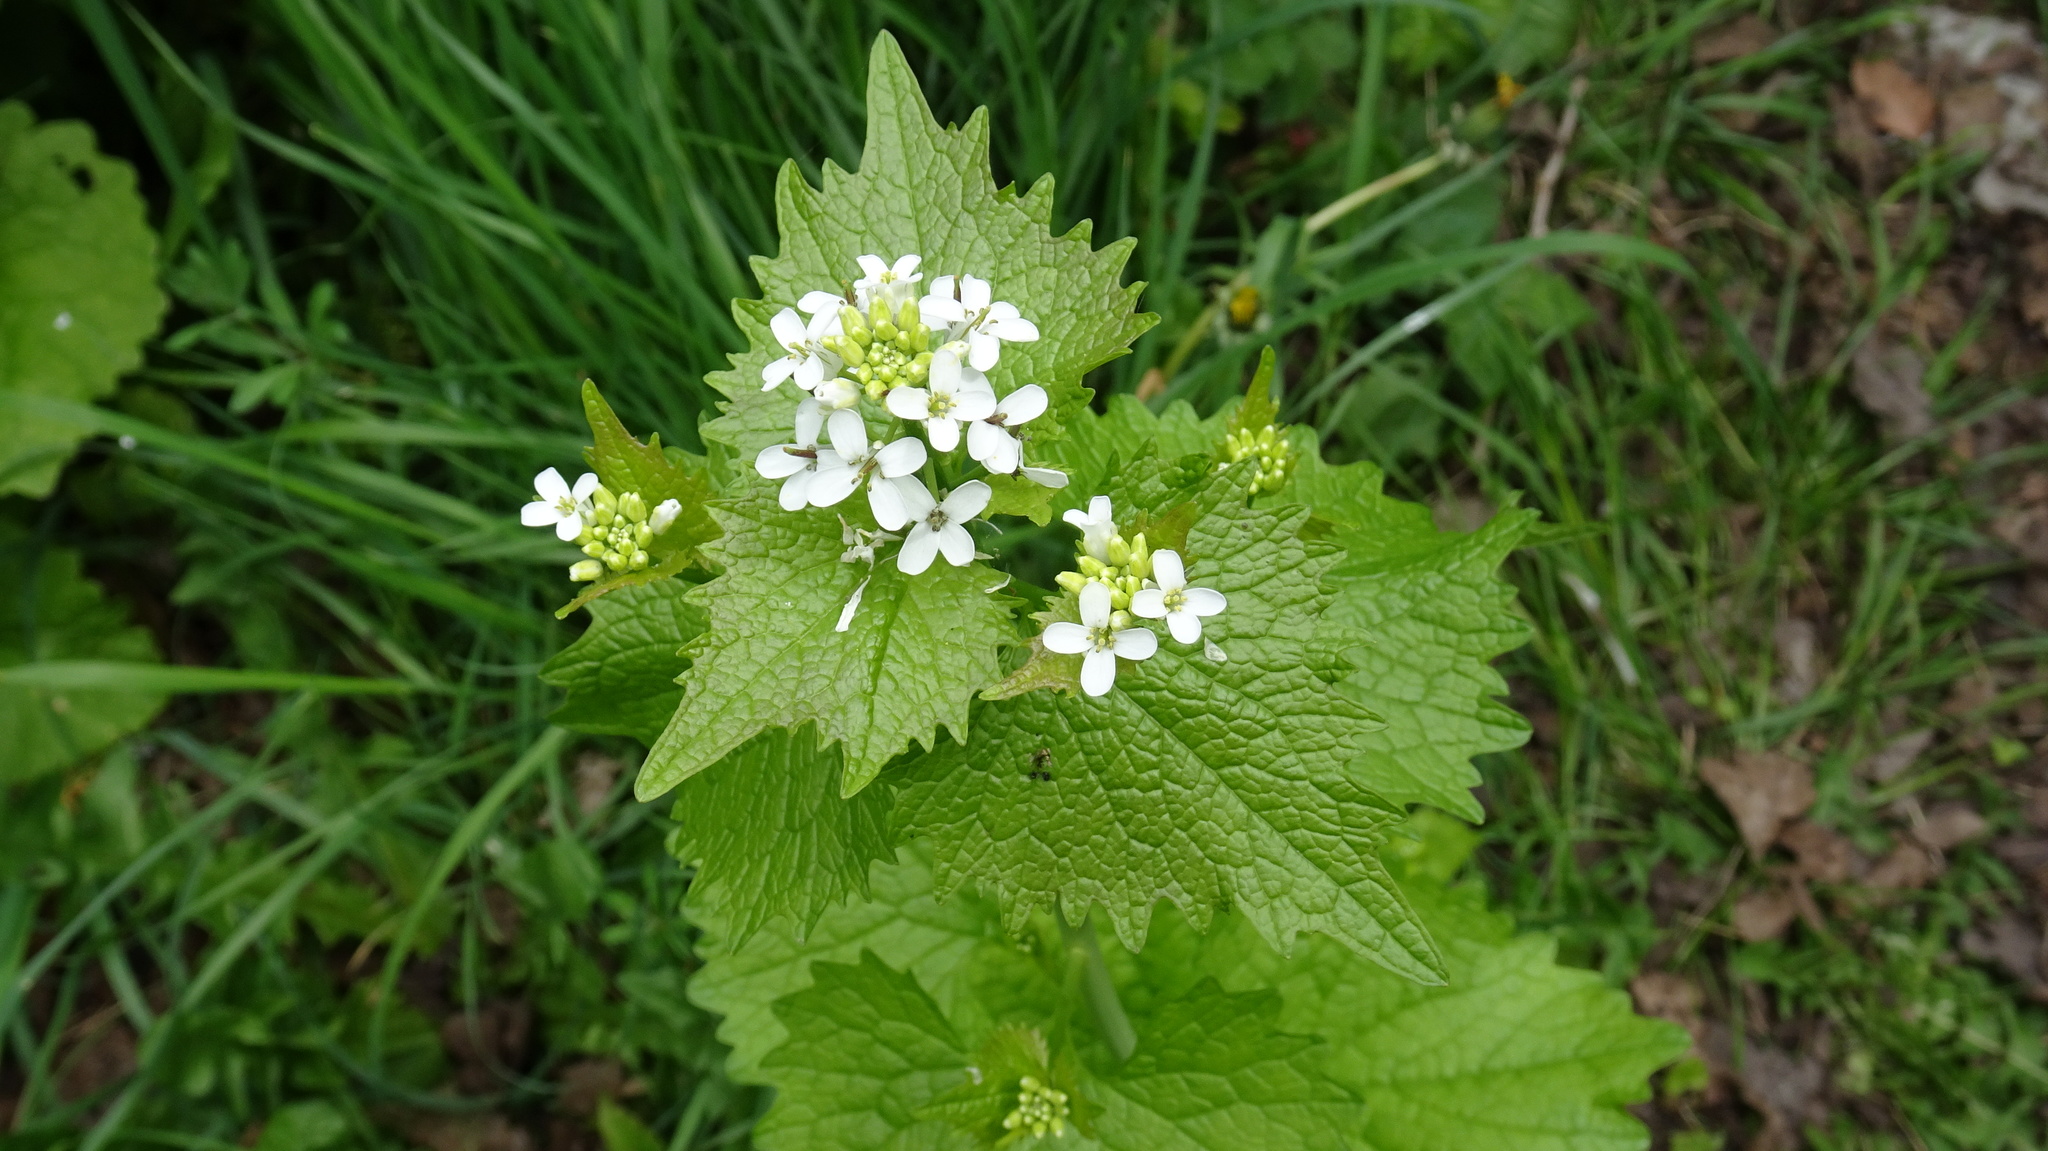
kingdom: Plantae
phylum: Tracheophyta
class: Magnoliopsida
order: Brassicales
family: Brassicaceae
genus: Alliaria
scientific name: Alliaria petiolata
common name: Garlic mustard
